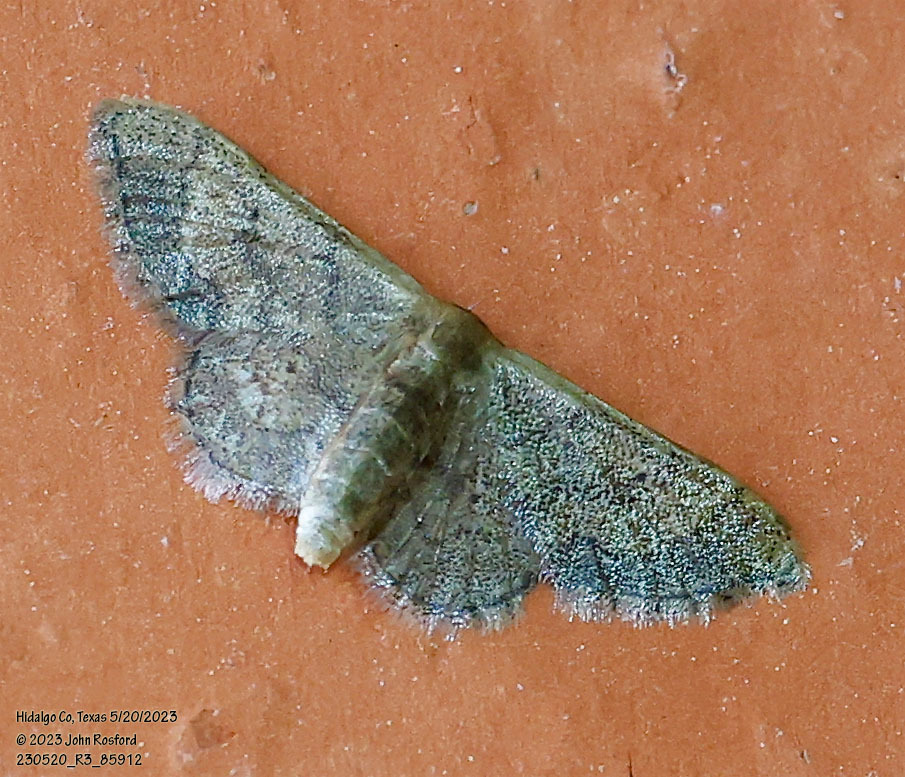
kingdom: Animalia
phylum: Arthropoda
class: Insecta
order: Lepidoptera
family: Geometridae
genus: Idaea
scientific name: Idaea kendallaria
